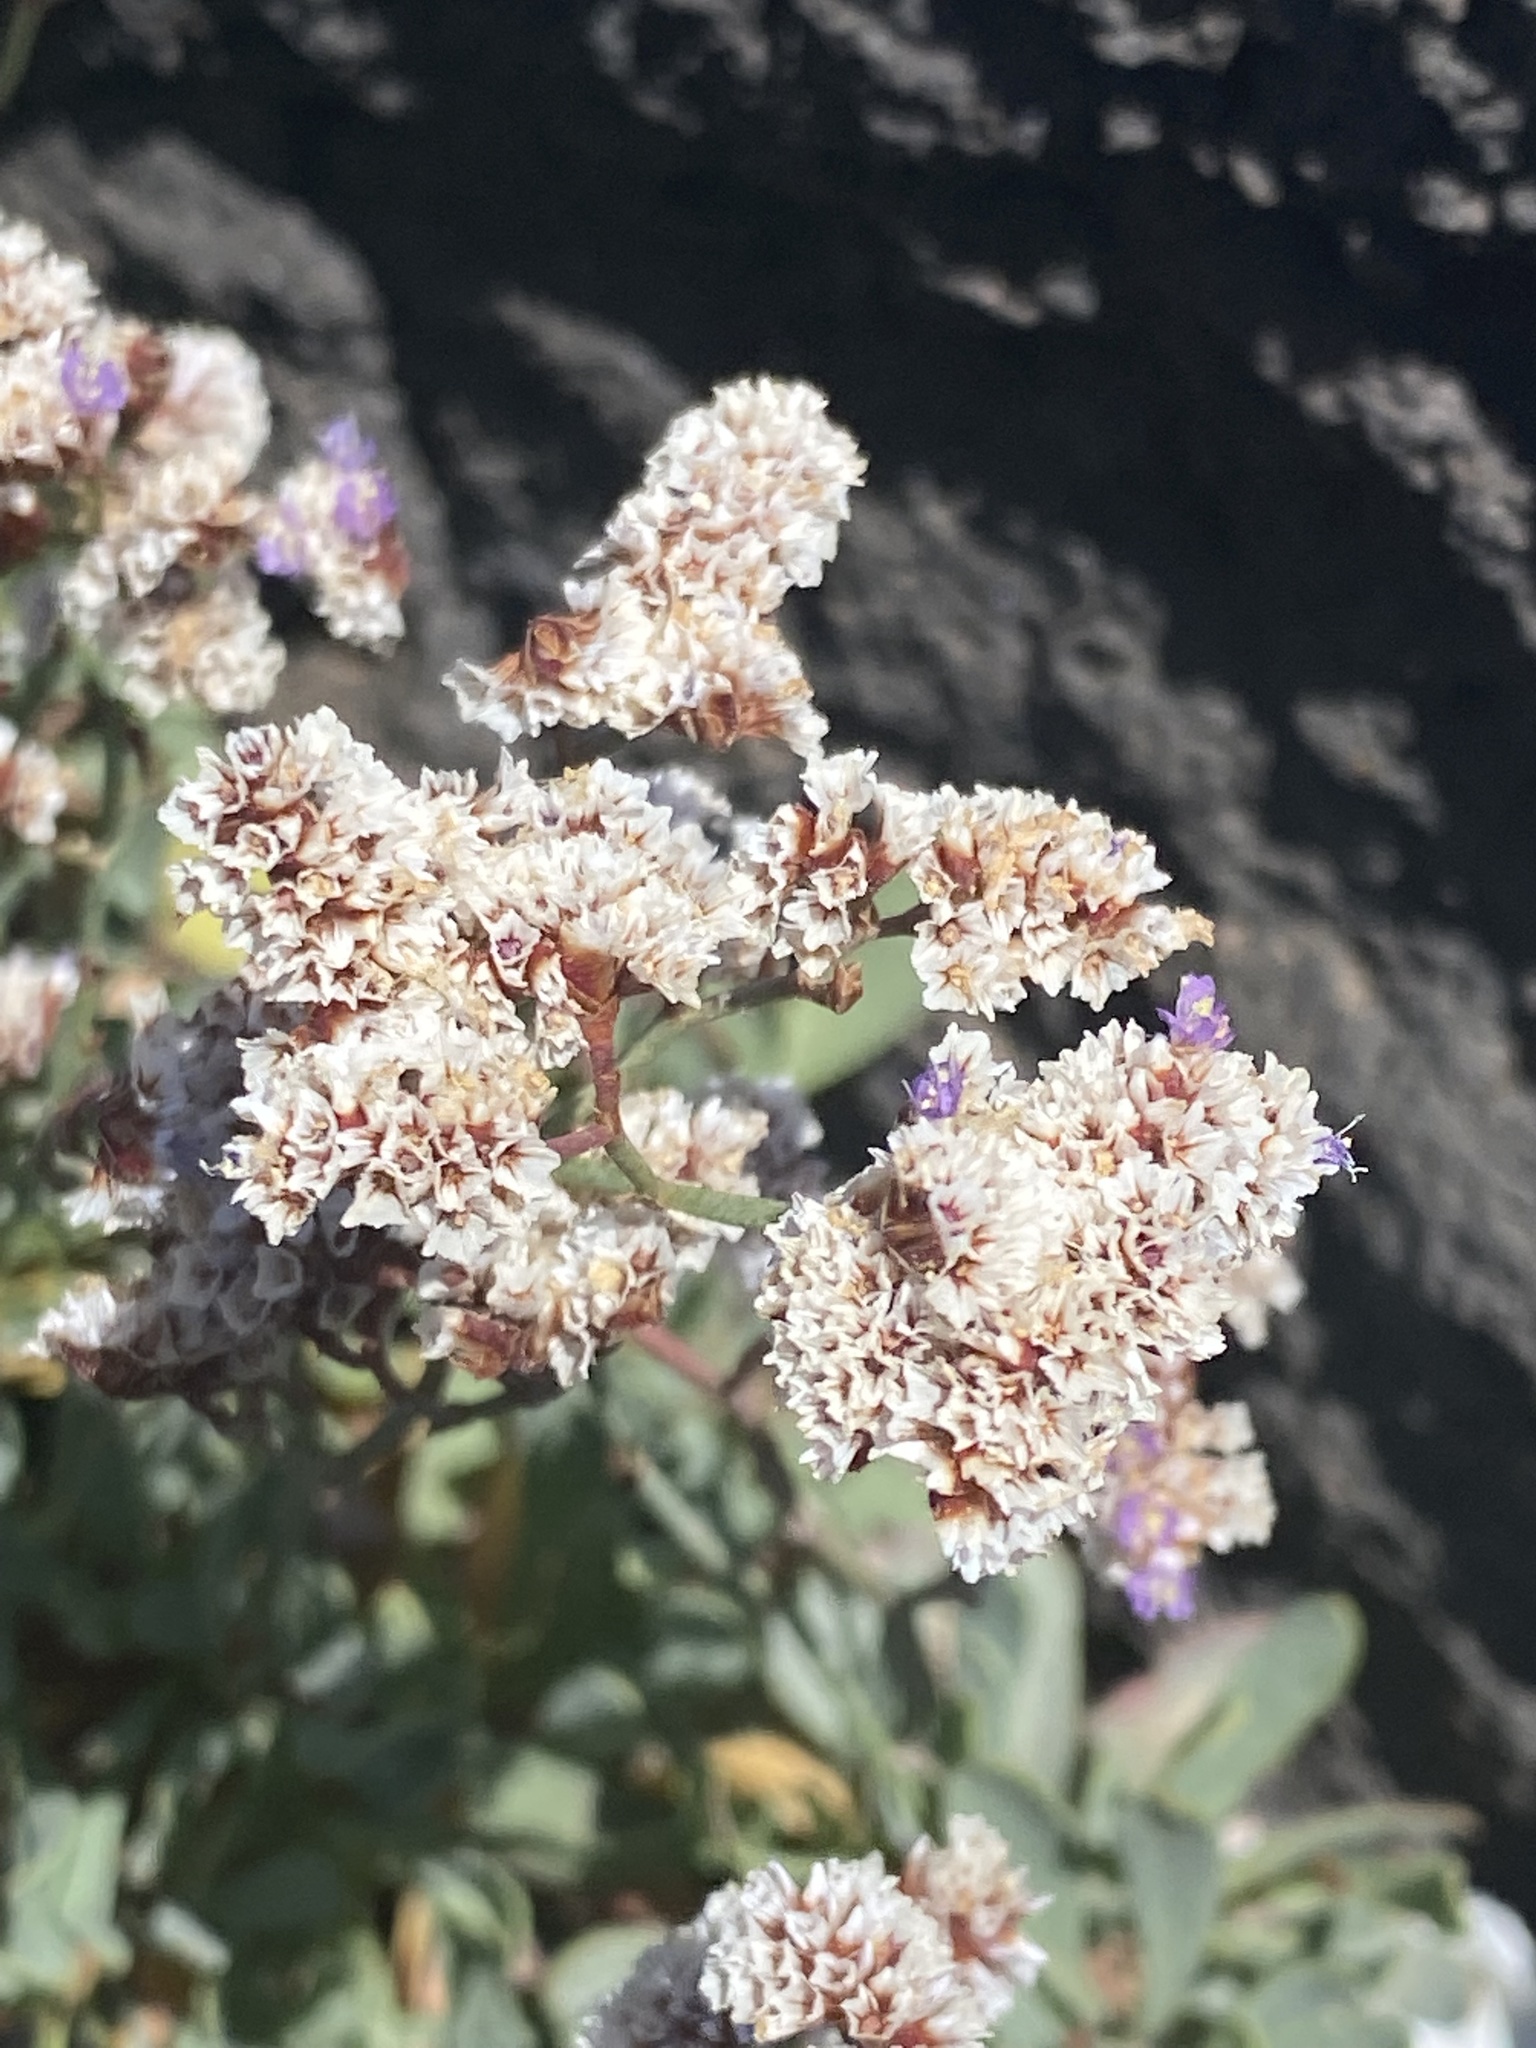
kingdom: Plantae
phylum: Tracheophyta
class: Magnoliopsida
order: Caryophyllales
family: Plumbaginaceae
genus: Limonium
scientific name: Limonium pectinatum
